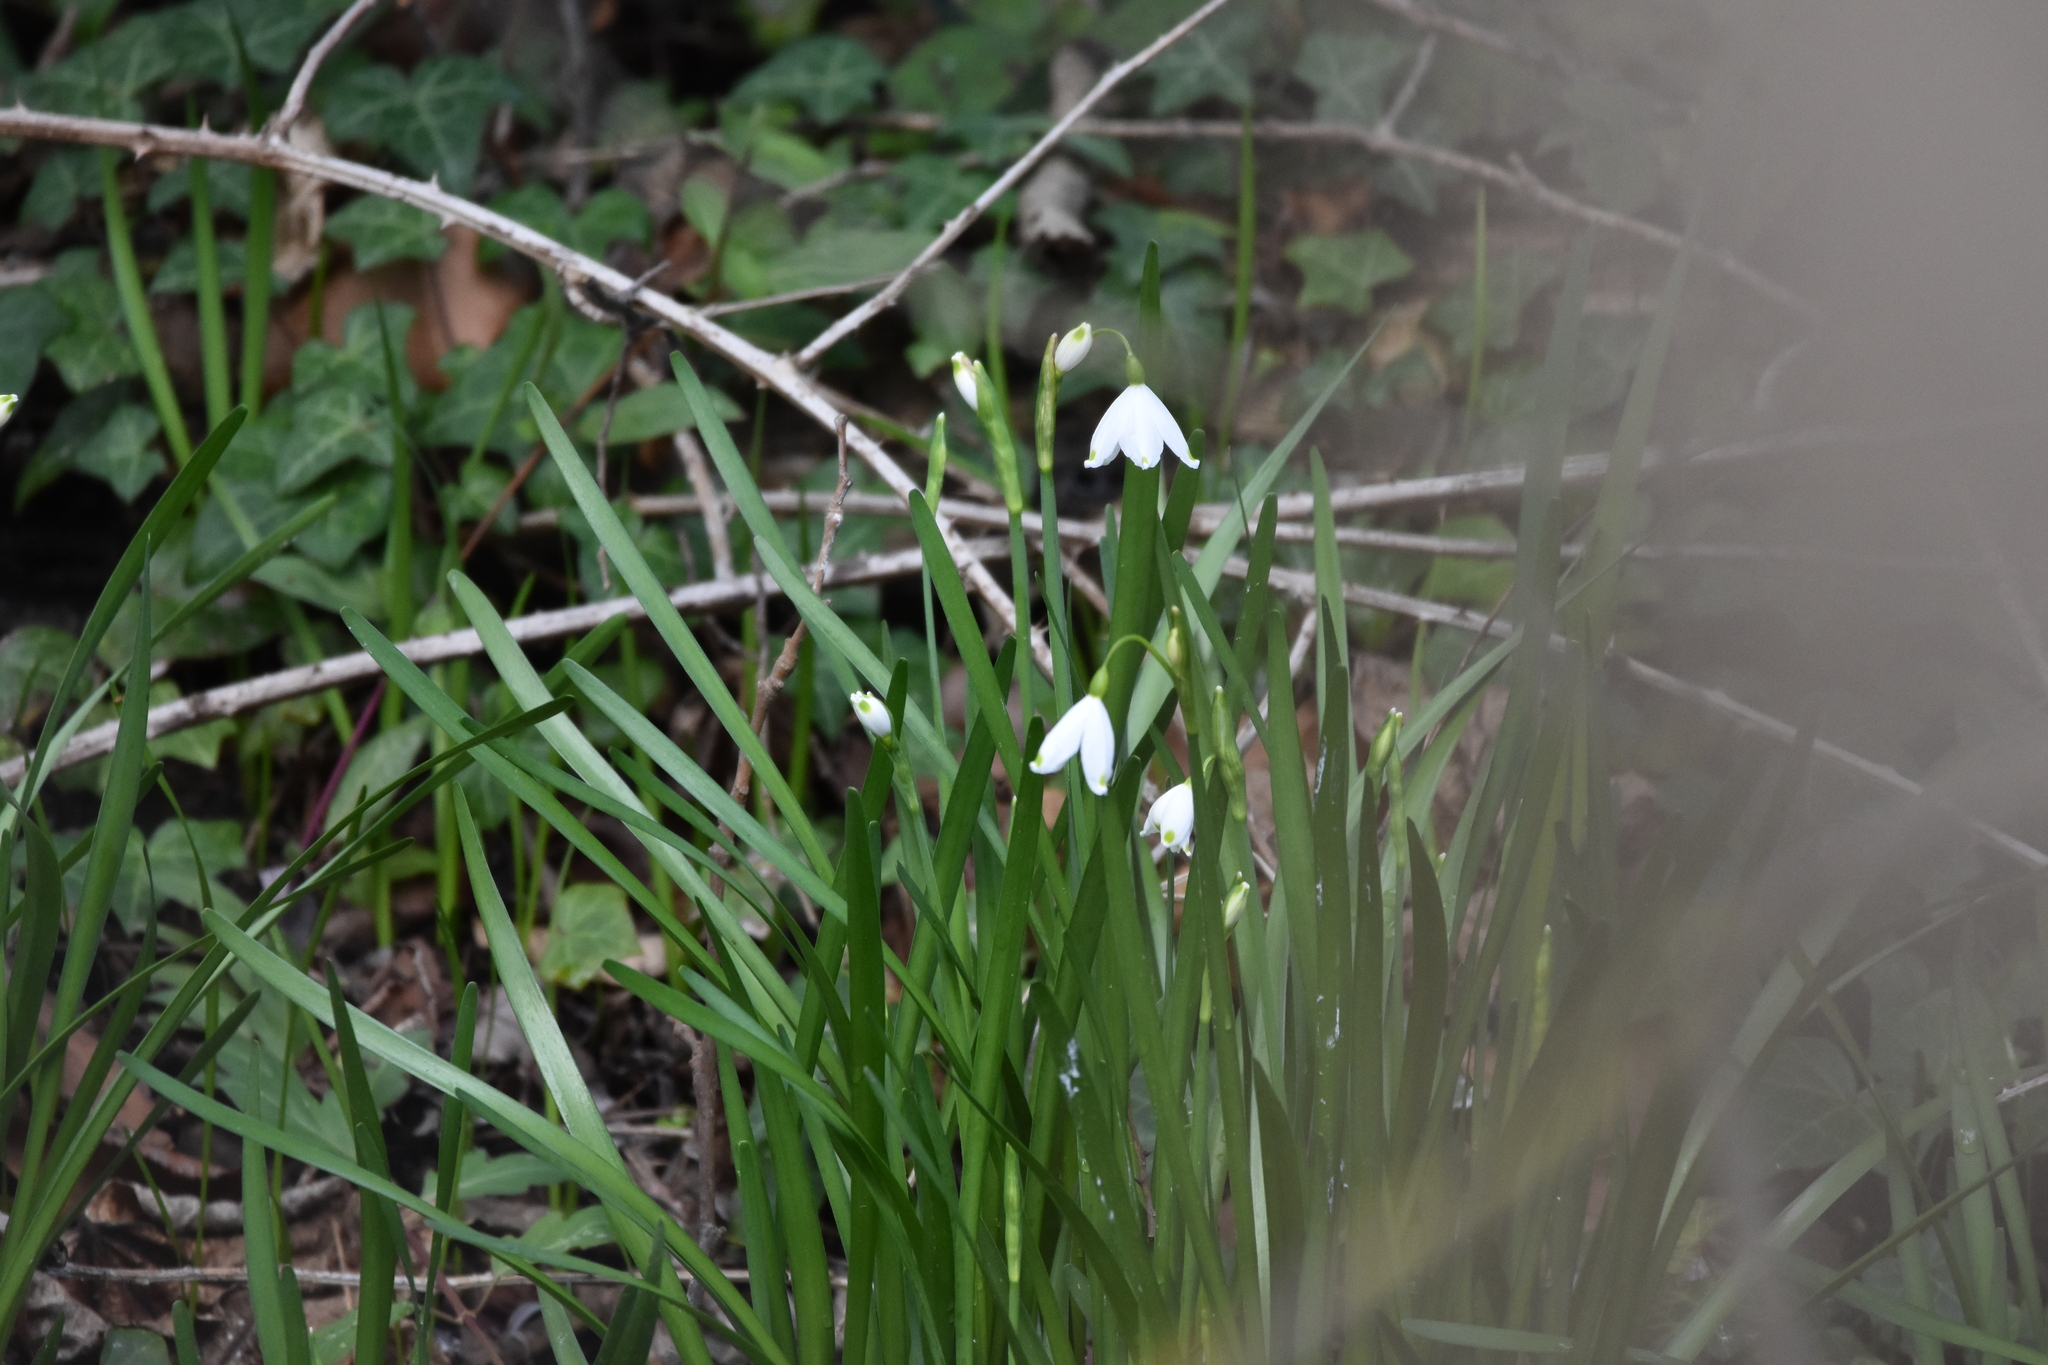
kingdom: Plantae
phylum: Tracheophyta
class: Liliopsida
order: Asparagales
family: Amaryllidaceae
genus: Leucojum
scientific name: Leucojum aestivum
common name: Summer snowflake
